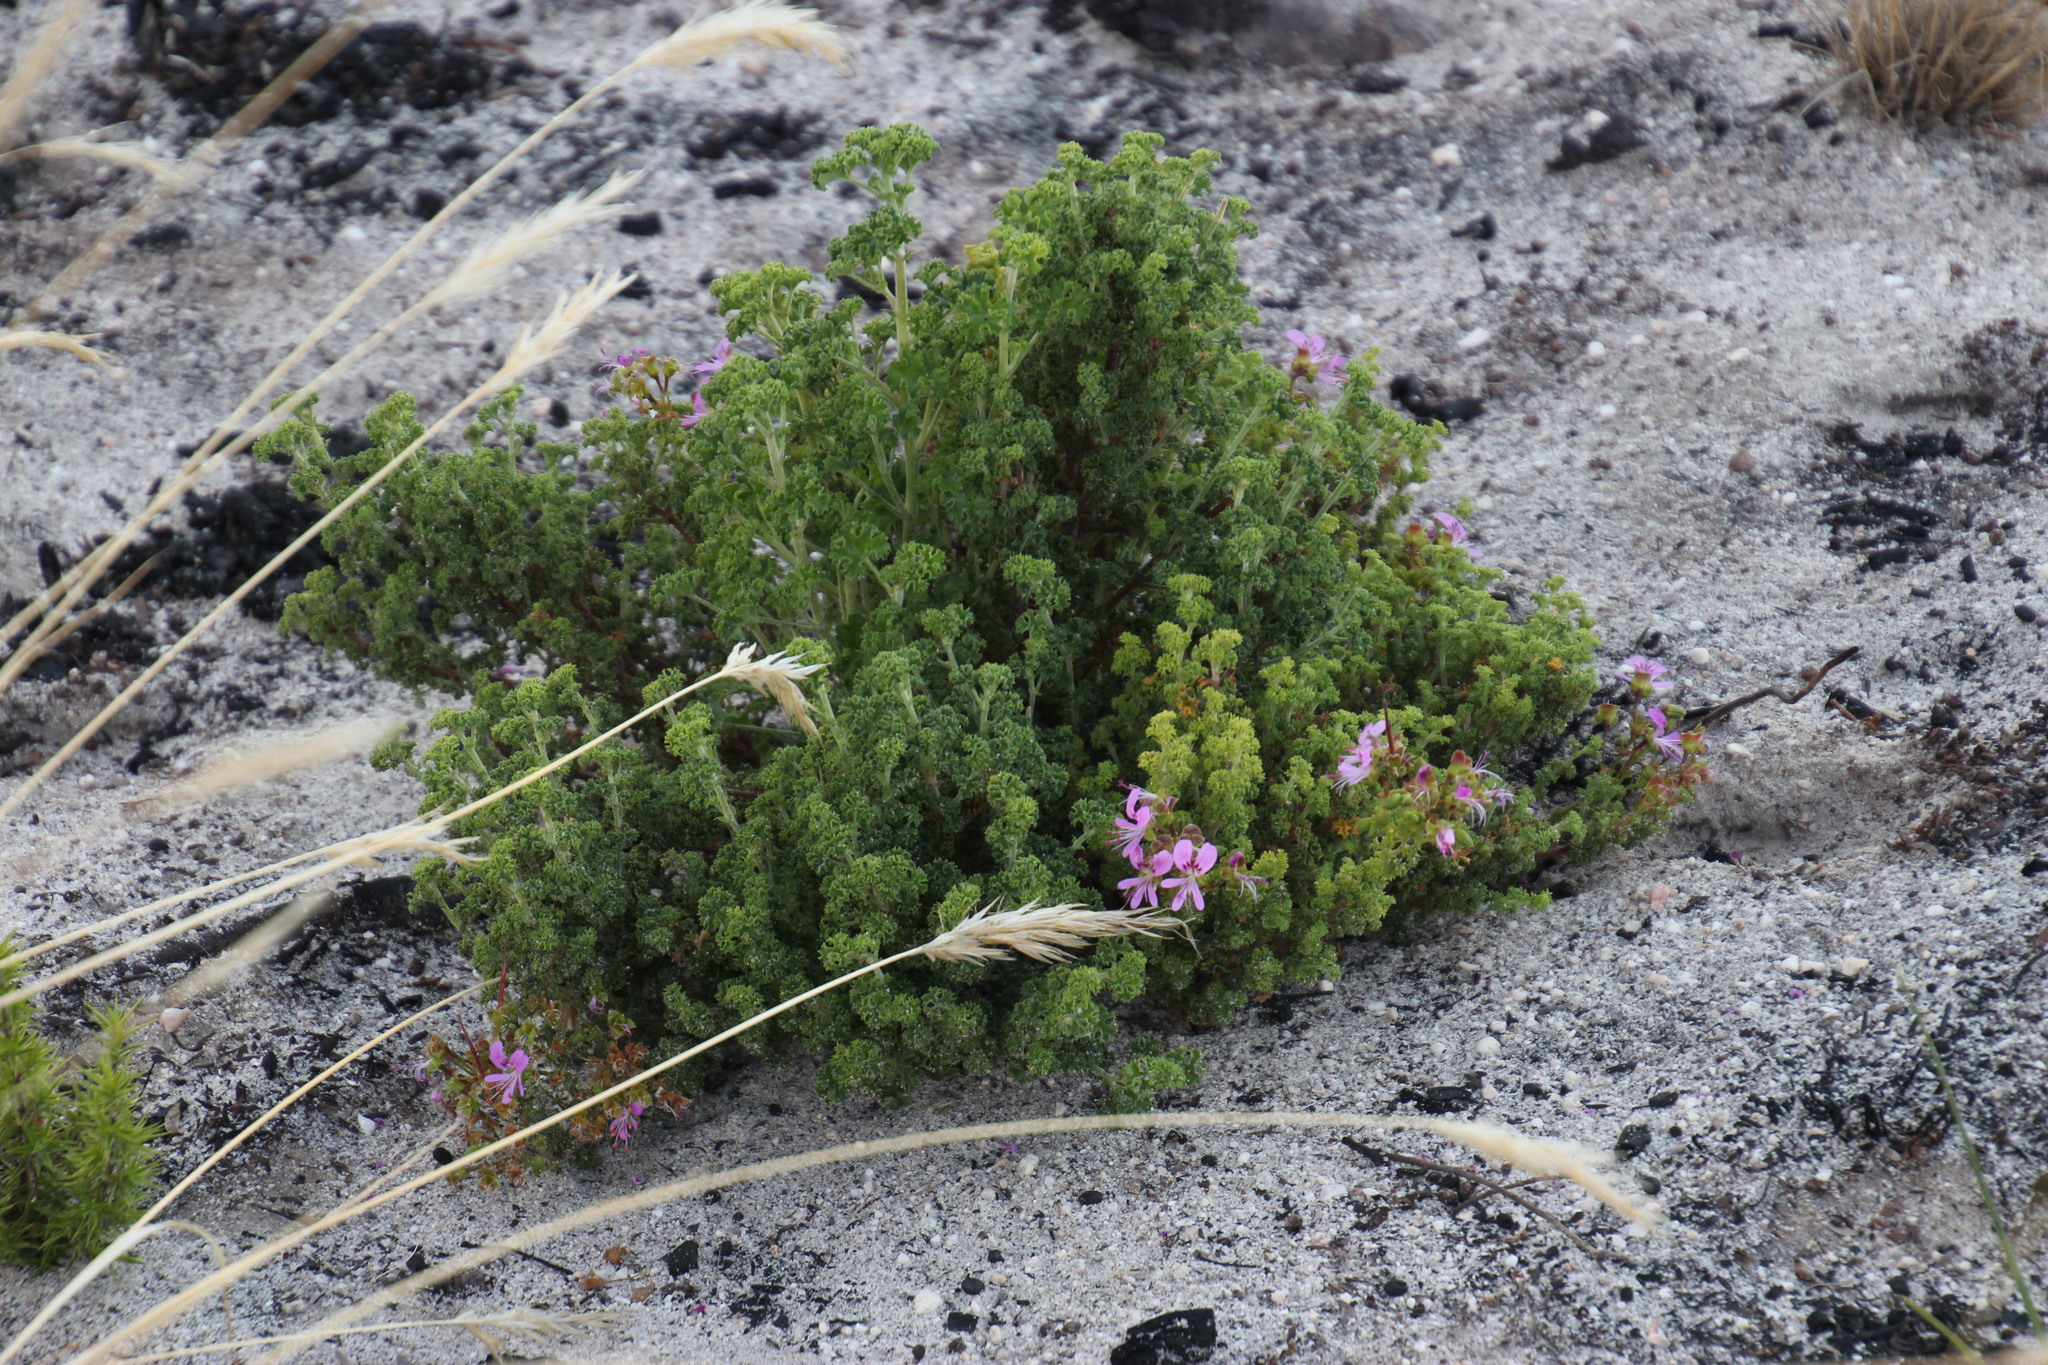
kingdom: Plantae
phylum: Tracheophyta
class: Magnoliopsida
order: Geraniales
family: Geraniaceae
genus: Pelargonium
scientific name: Pelargonium englerianum
